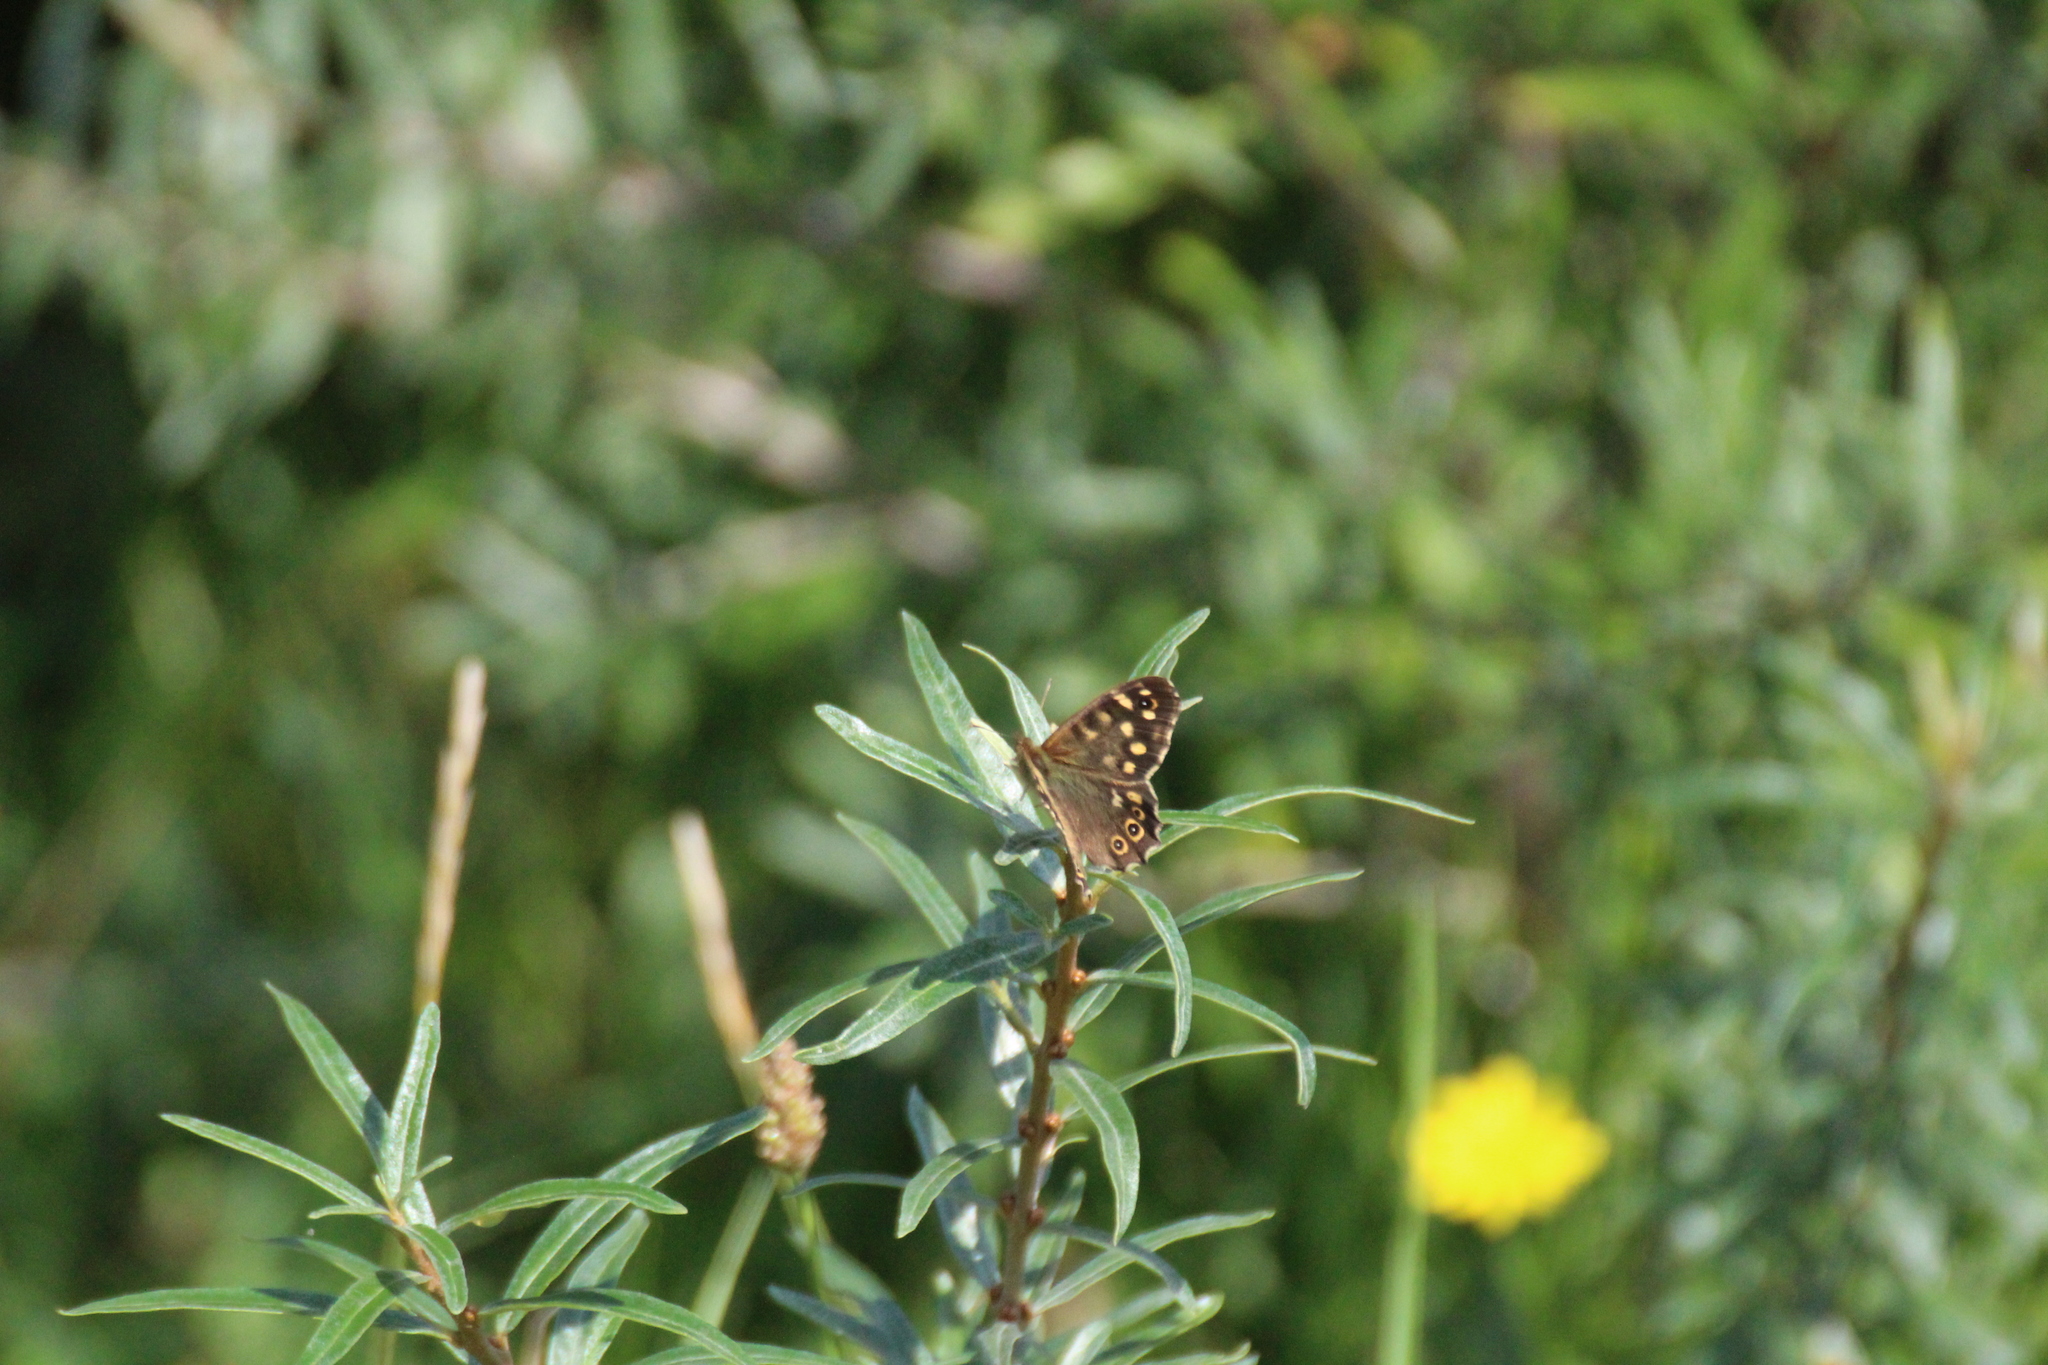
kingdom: Animalia
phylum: Arthropoda
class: Insecta
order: Lepidoptera
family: Nymphalidae
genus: Pararge
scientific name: Pararge aegeria
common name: Speckled wood
